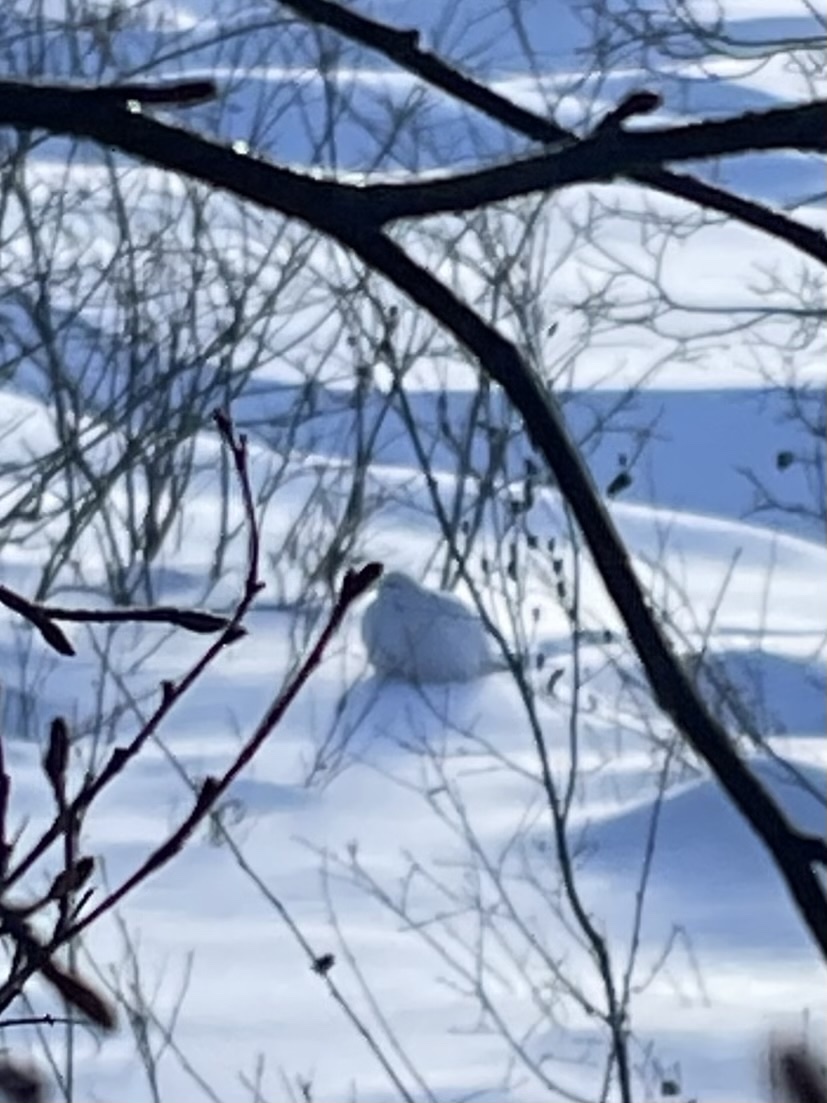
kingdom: Animalia
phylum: Chordata
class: Aves
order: Galliformes
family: Phasianidae
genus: Lagopus
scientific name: Lagopus lagopus
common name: Willow ptarmigan
